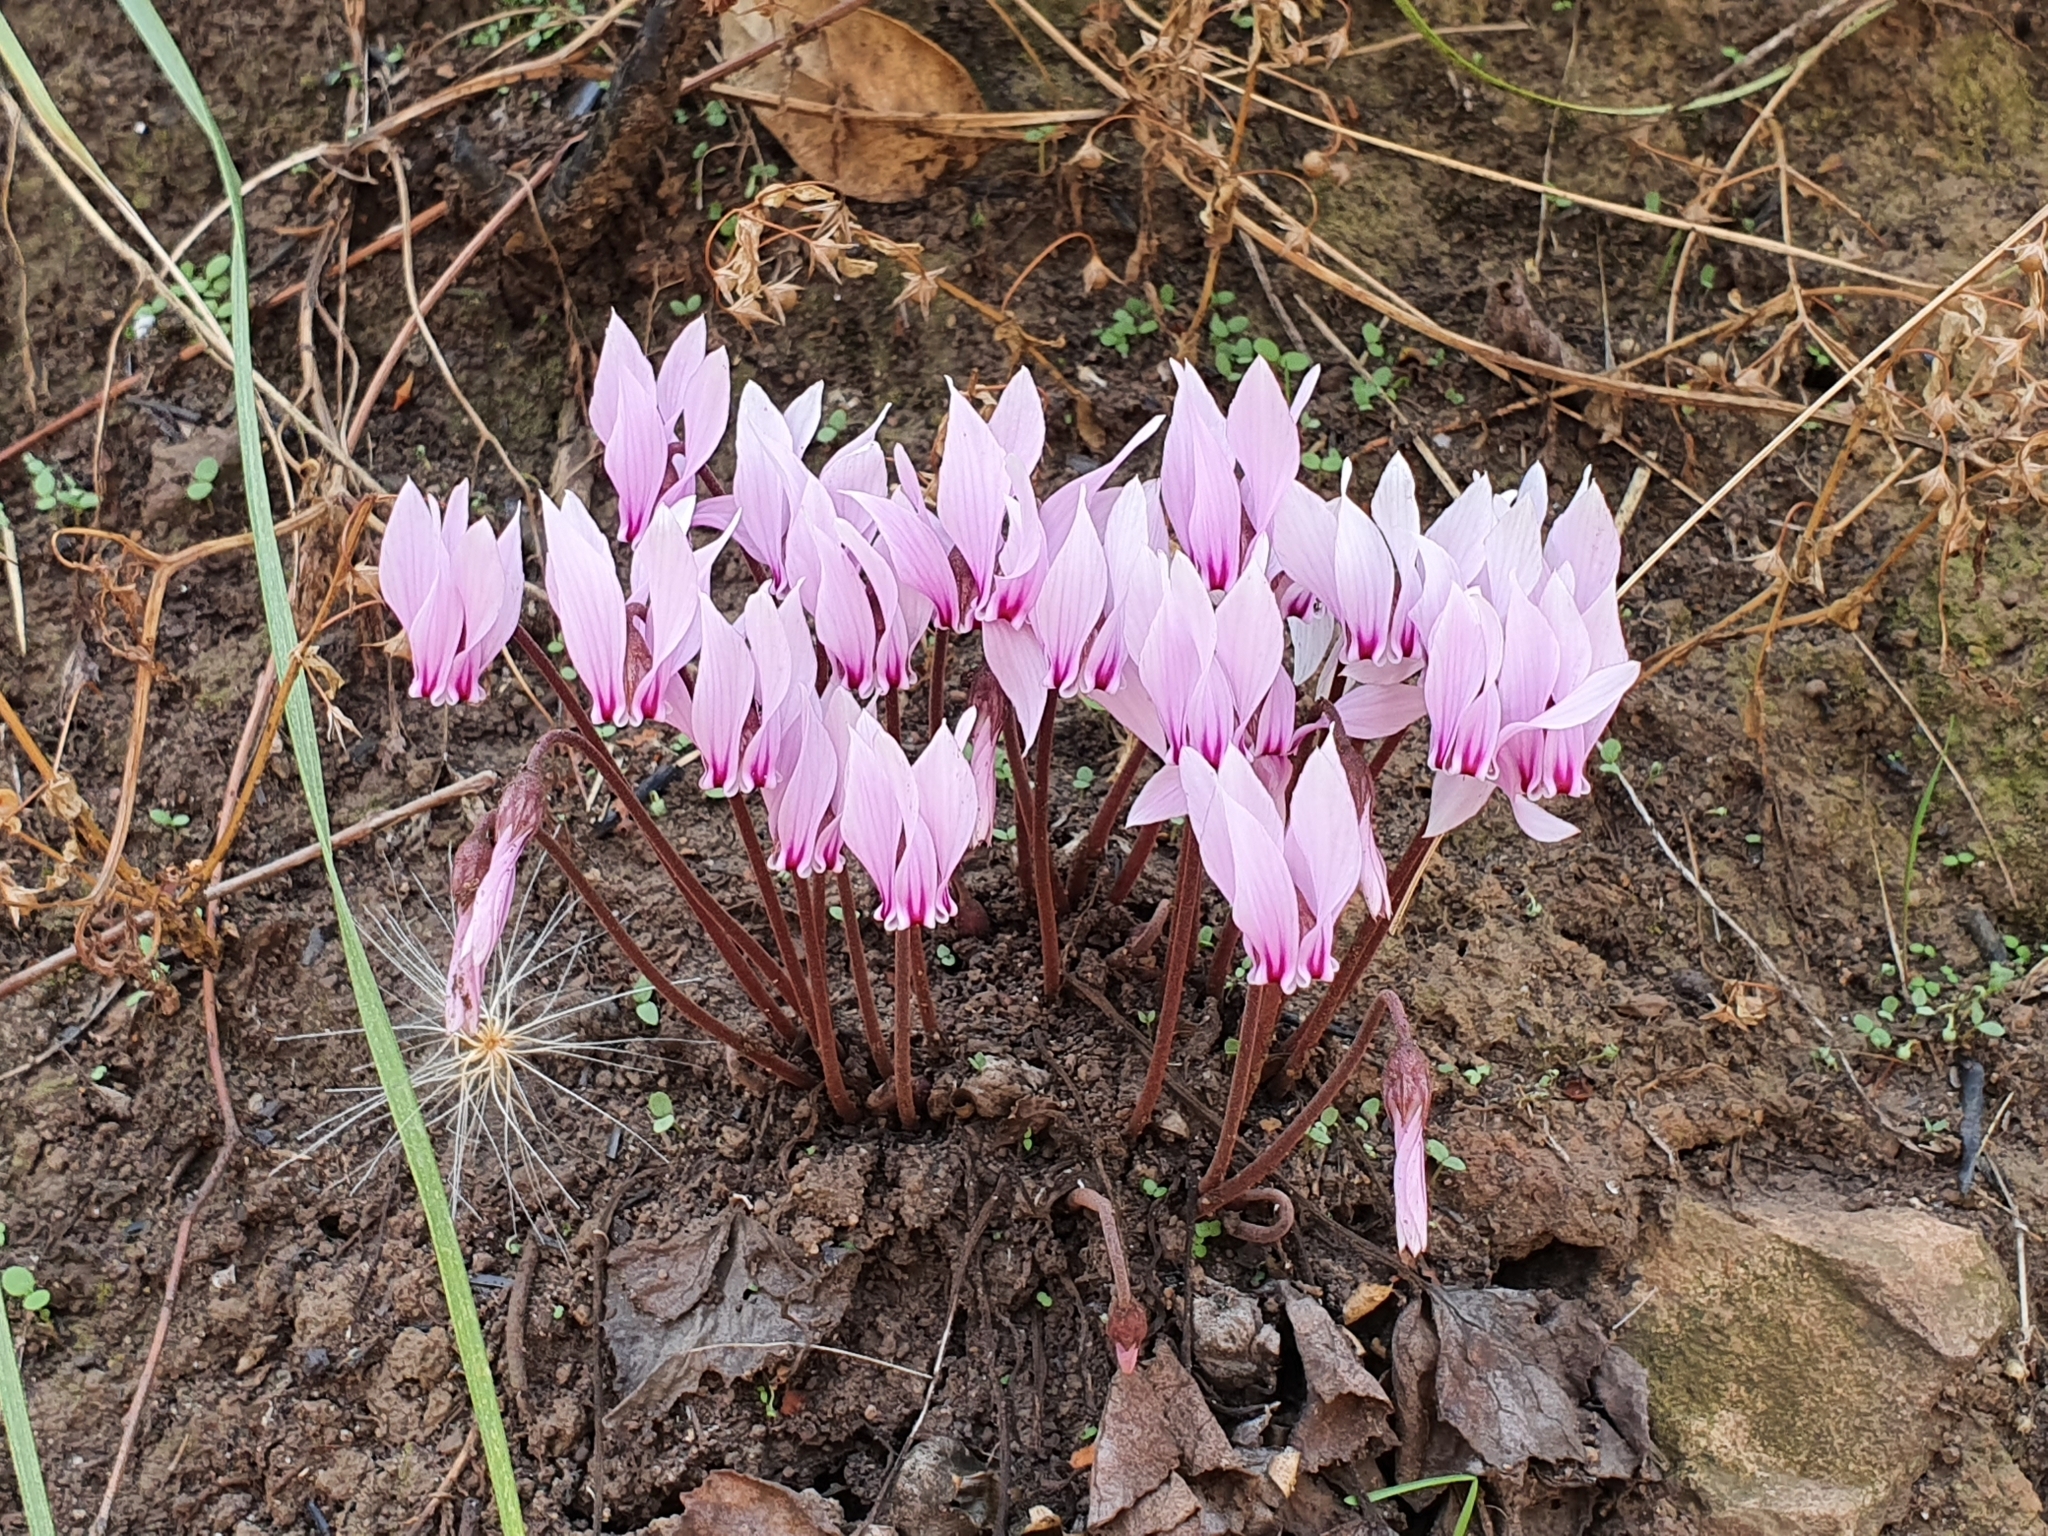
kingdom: Plantae
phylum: Tracheophyta
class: Magnoliopsida
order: Ericales
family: Primulaceae
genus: Cyclamen
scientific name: Cyclamen africanum
